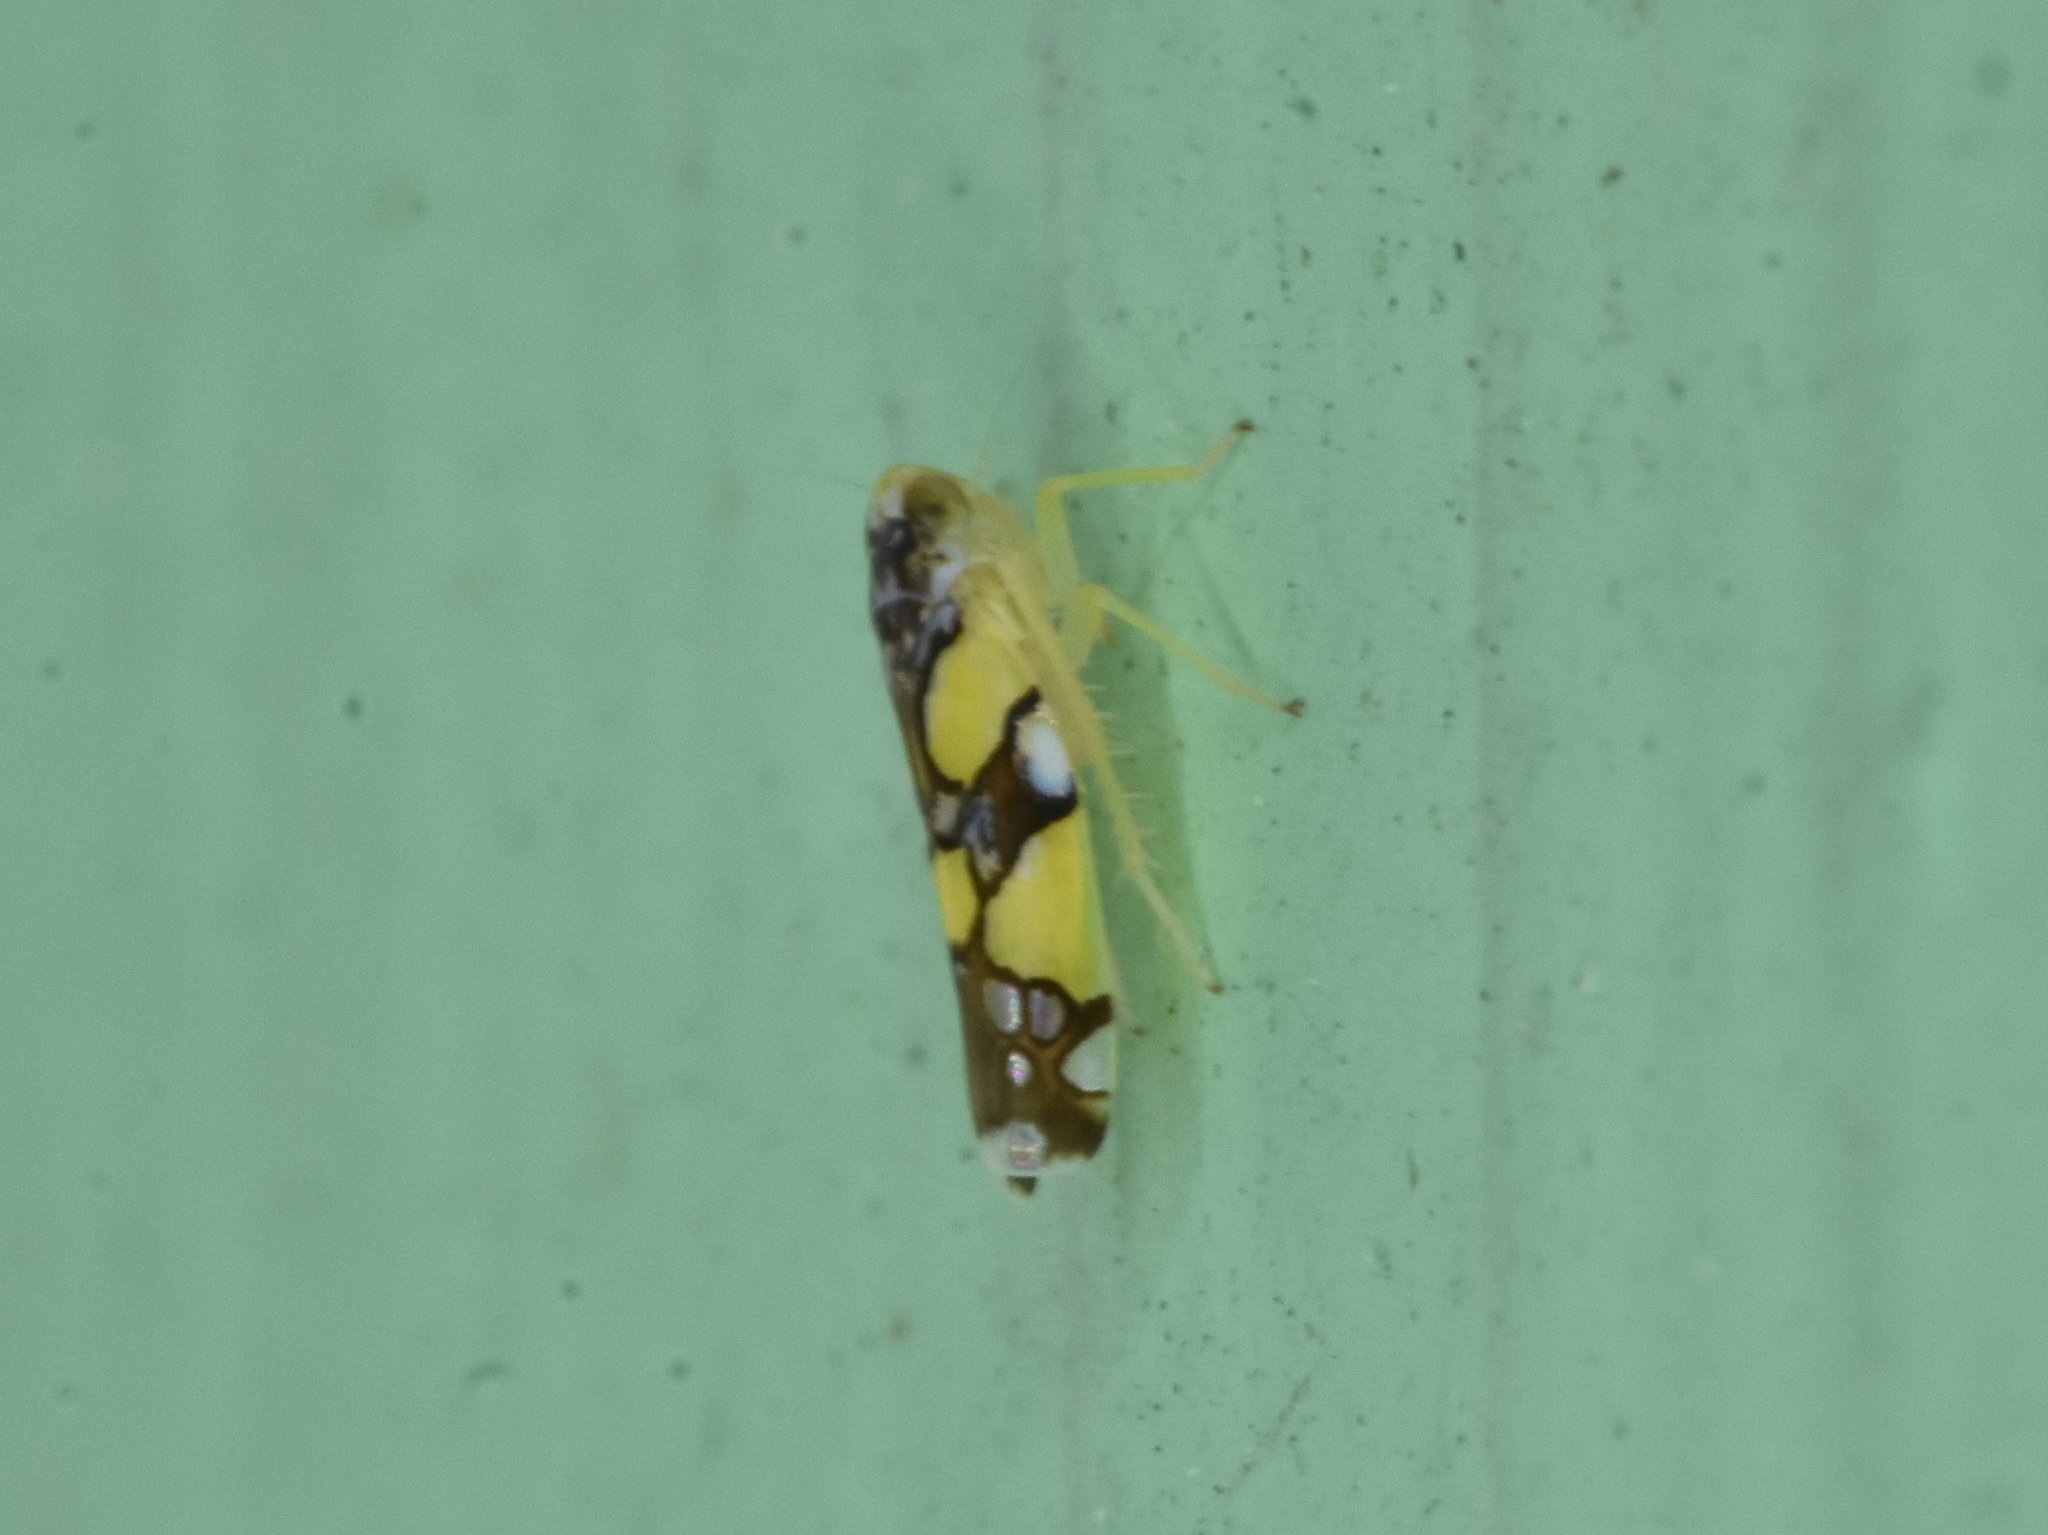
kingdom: Animalia
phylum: Arthropoda
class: Insecta
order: Hemiptera
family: Cicadellidae
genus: Protalebrella
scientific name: Protalebrella brasiliensis
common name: Brasilian leafhopper
